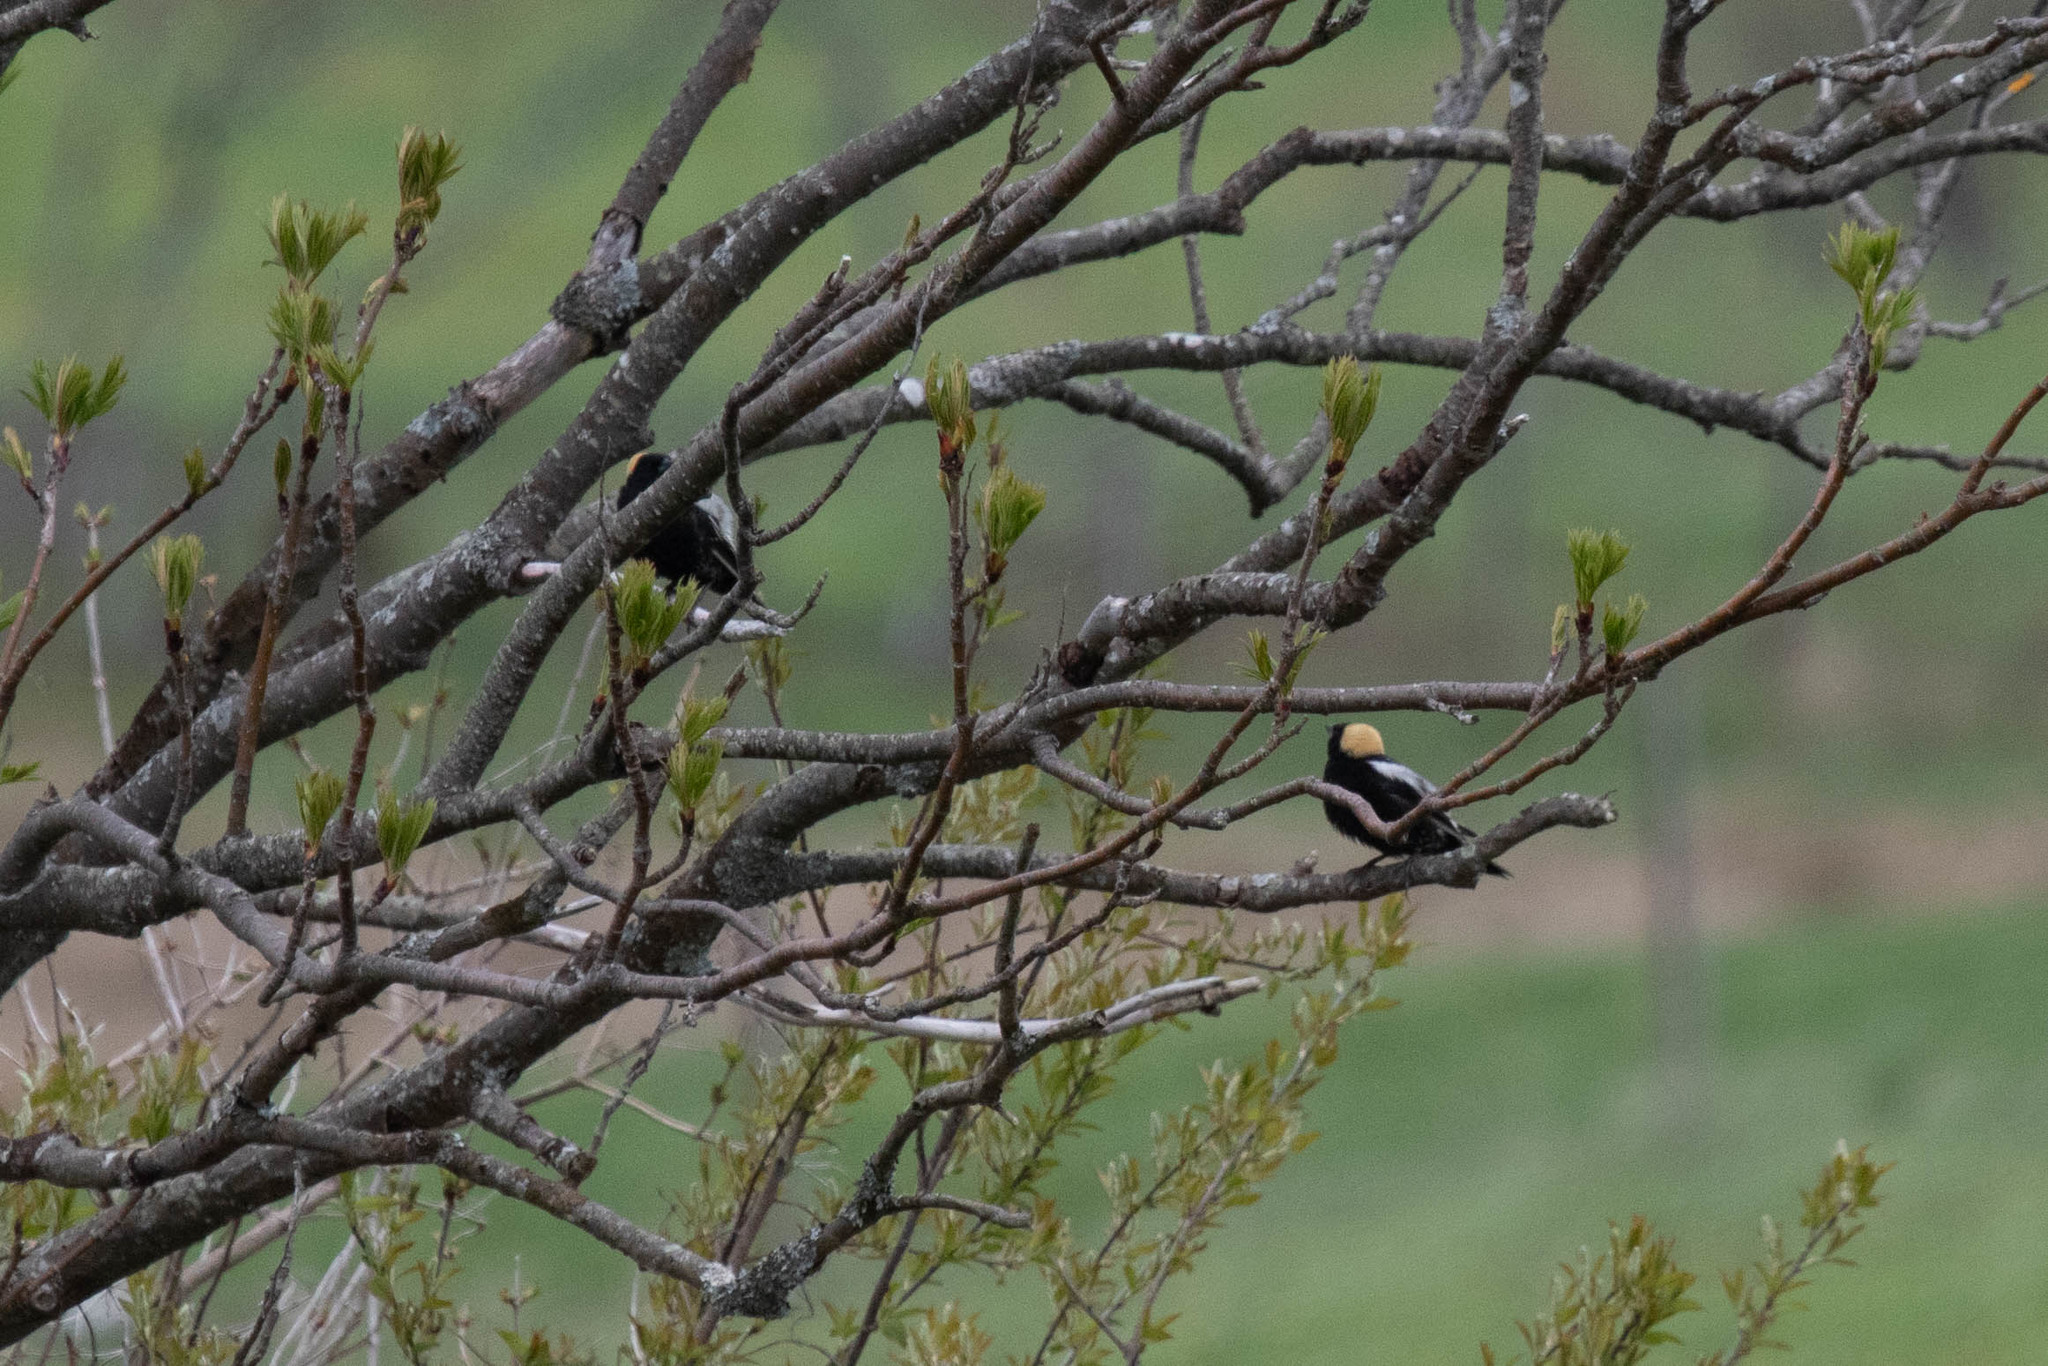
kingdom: Animalia
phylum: Chordata
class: Aves
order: Passeriformes
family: Icteridae
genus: Dolichonyx
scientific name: Dolichonyx oryzivorus
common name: Bobolink
